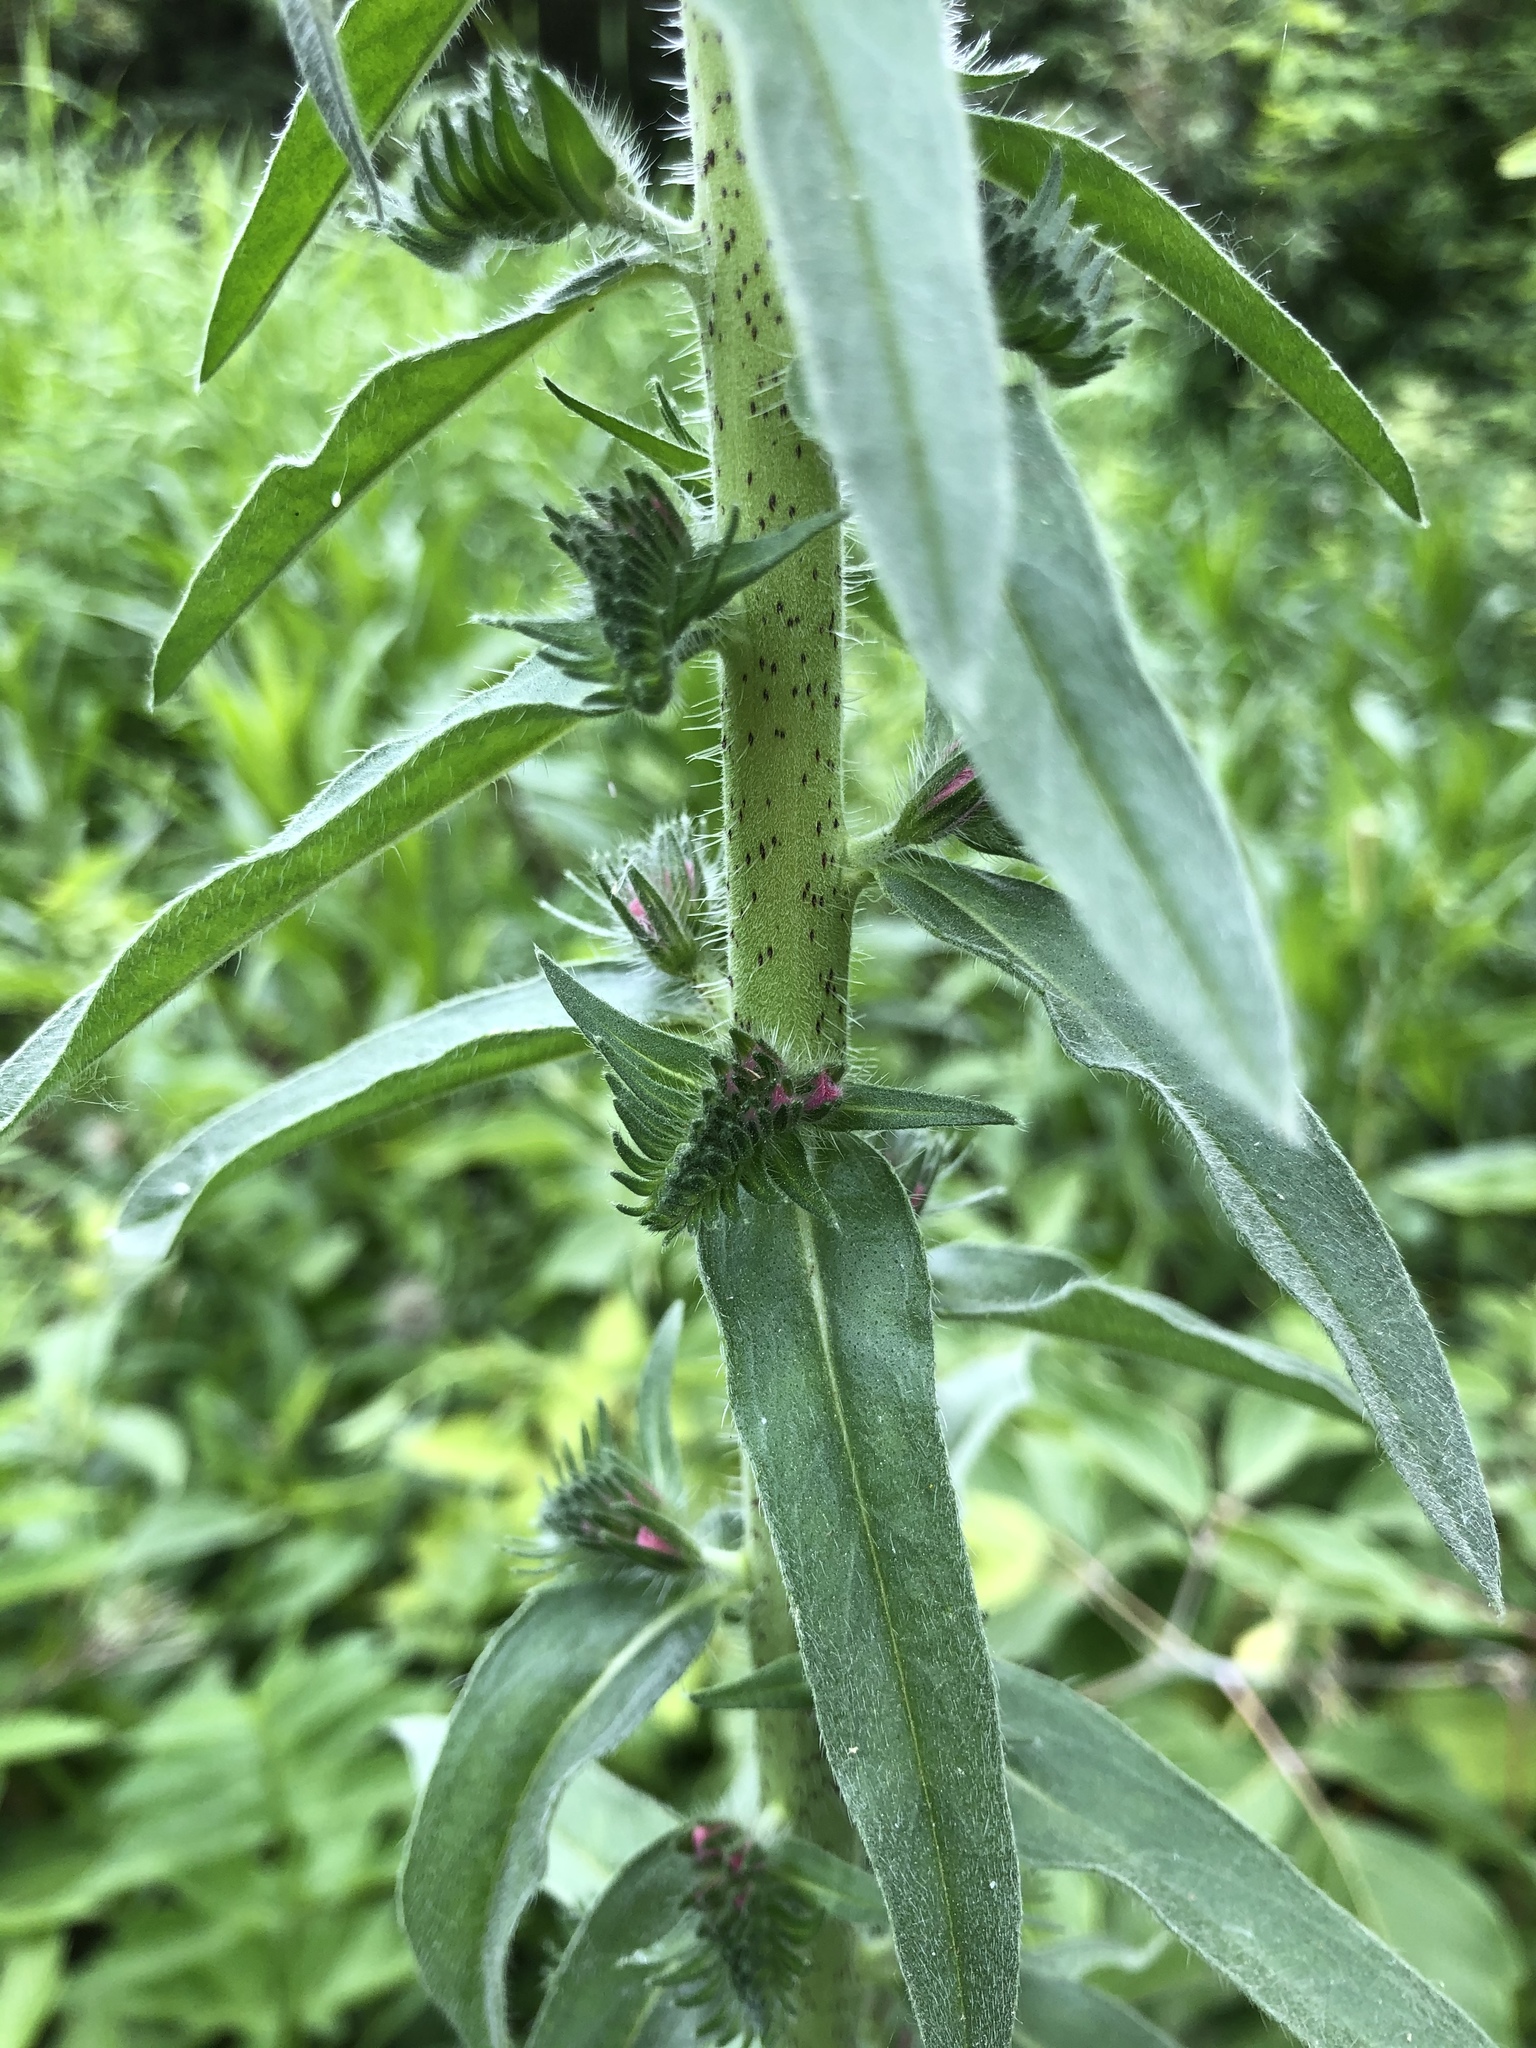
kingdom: Plantae
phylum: Tracheophyta
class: Magnoliopsida
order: Boraginales
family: Boraginaceae
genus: Echium
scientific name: Echium vulgare
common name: Common viper's bugloss
